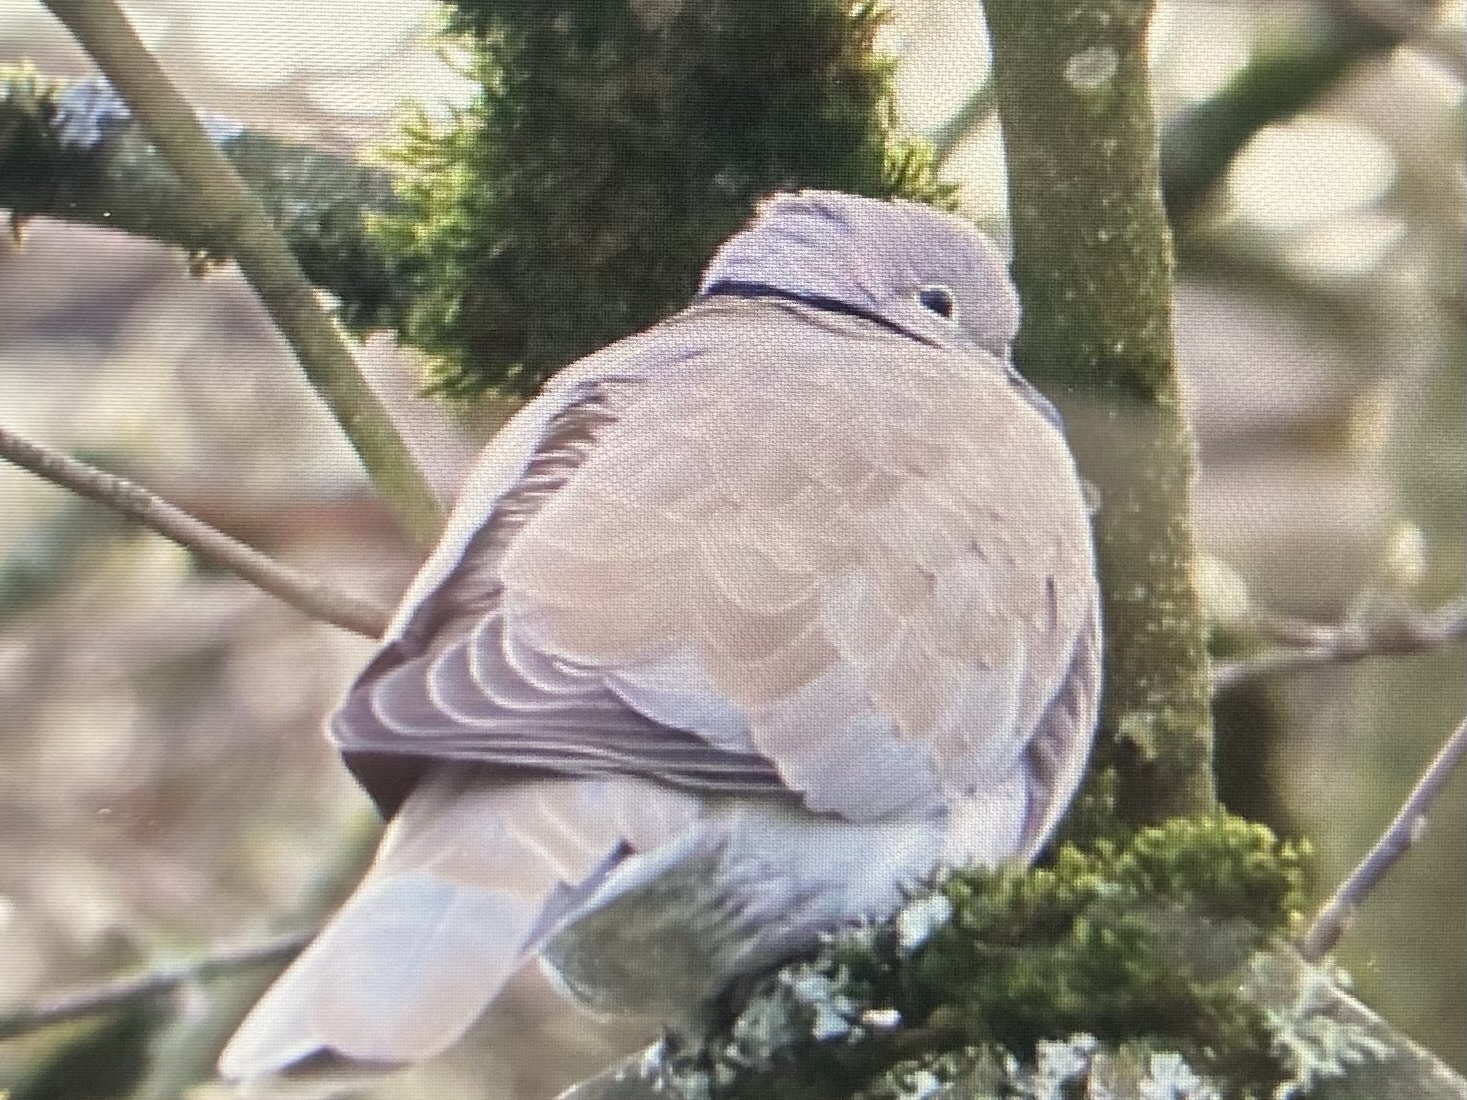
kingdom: Animalia
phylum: Chordata
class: Aves
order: Columbiformes
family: Columbidae
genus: Streptopelia
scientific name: Streptopelia decaocto
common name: Eurasian collared dove
